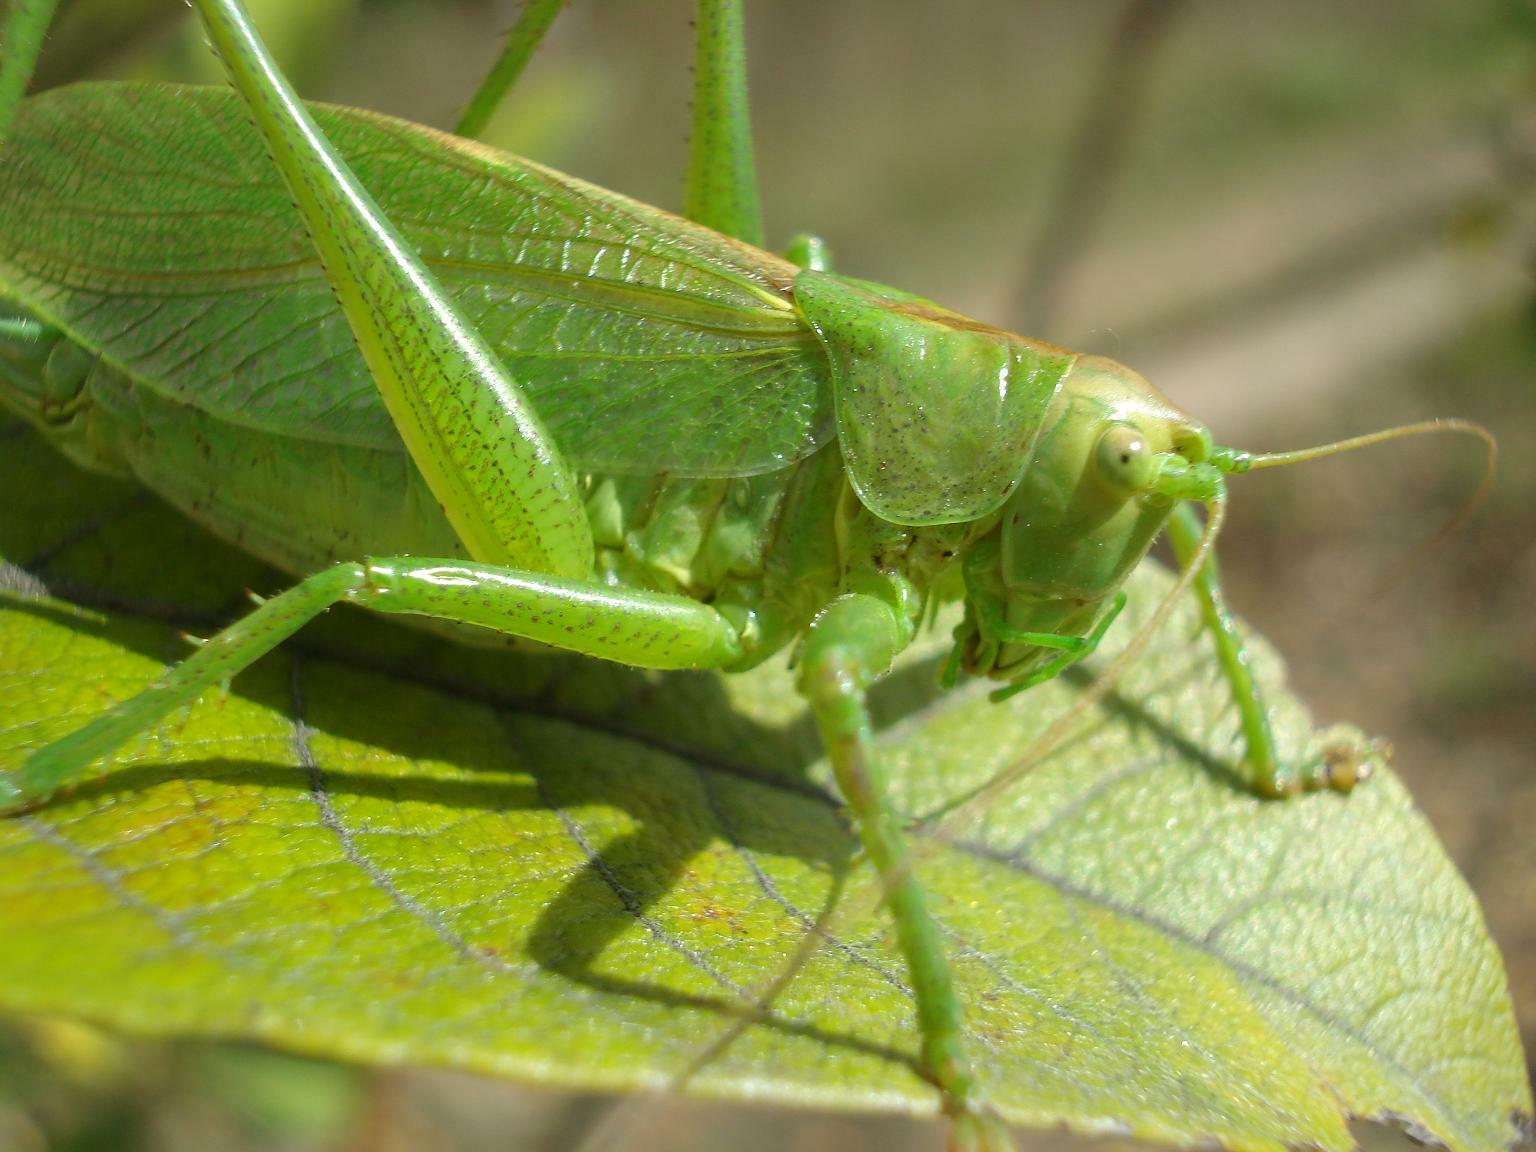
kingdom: Animalia
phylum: Arthropoda
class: Insecta
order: Orthoptera
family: Tettigoniidae
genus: Tettigonia
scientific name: Tettigonia cantans
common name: Upland green bush-cricket
